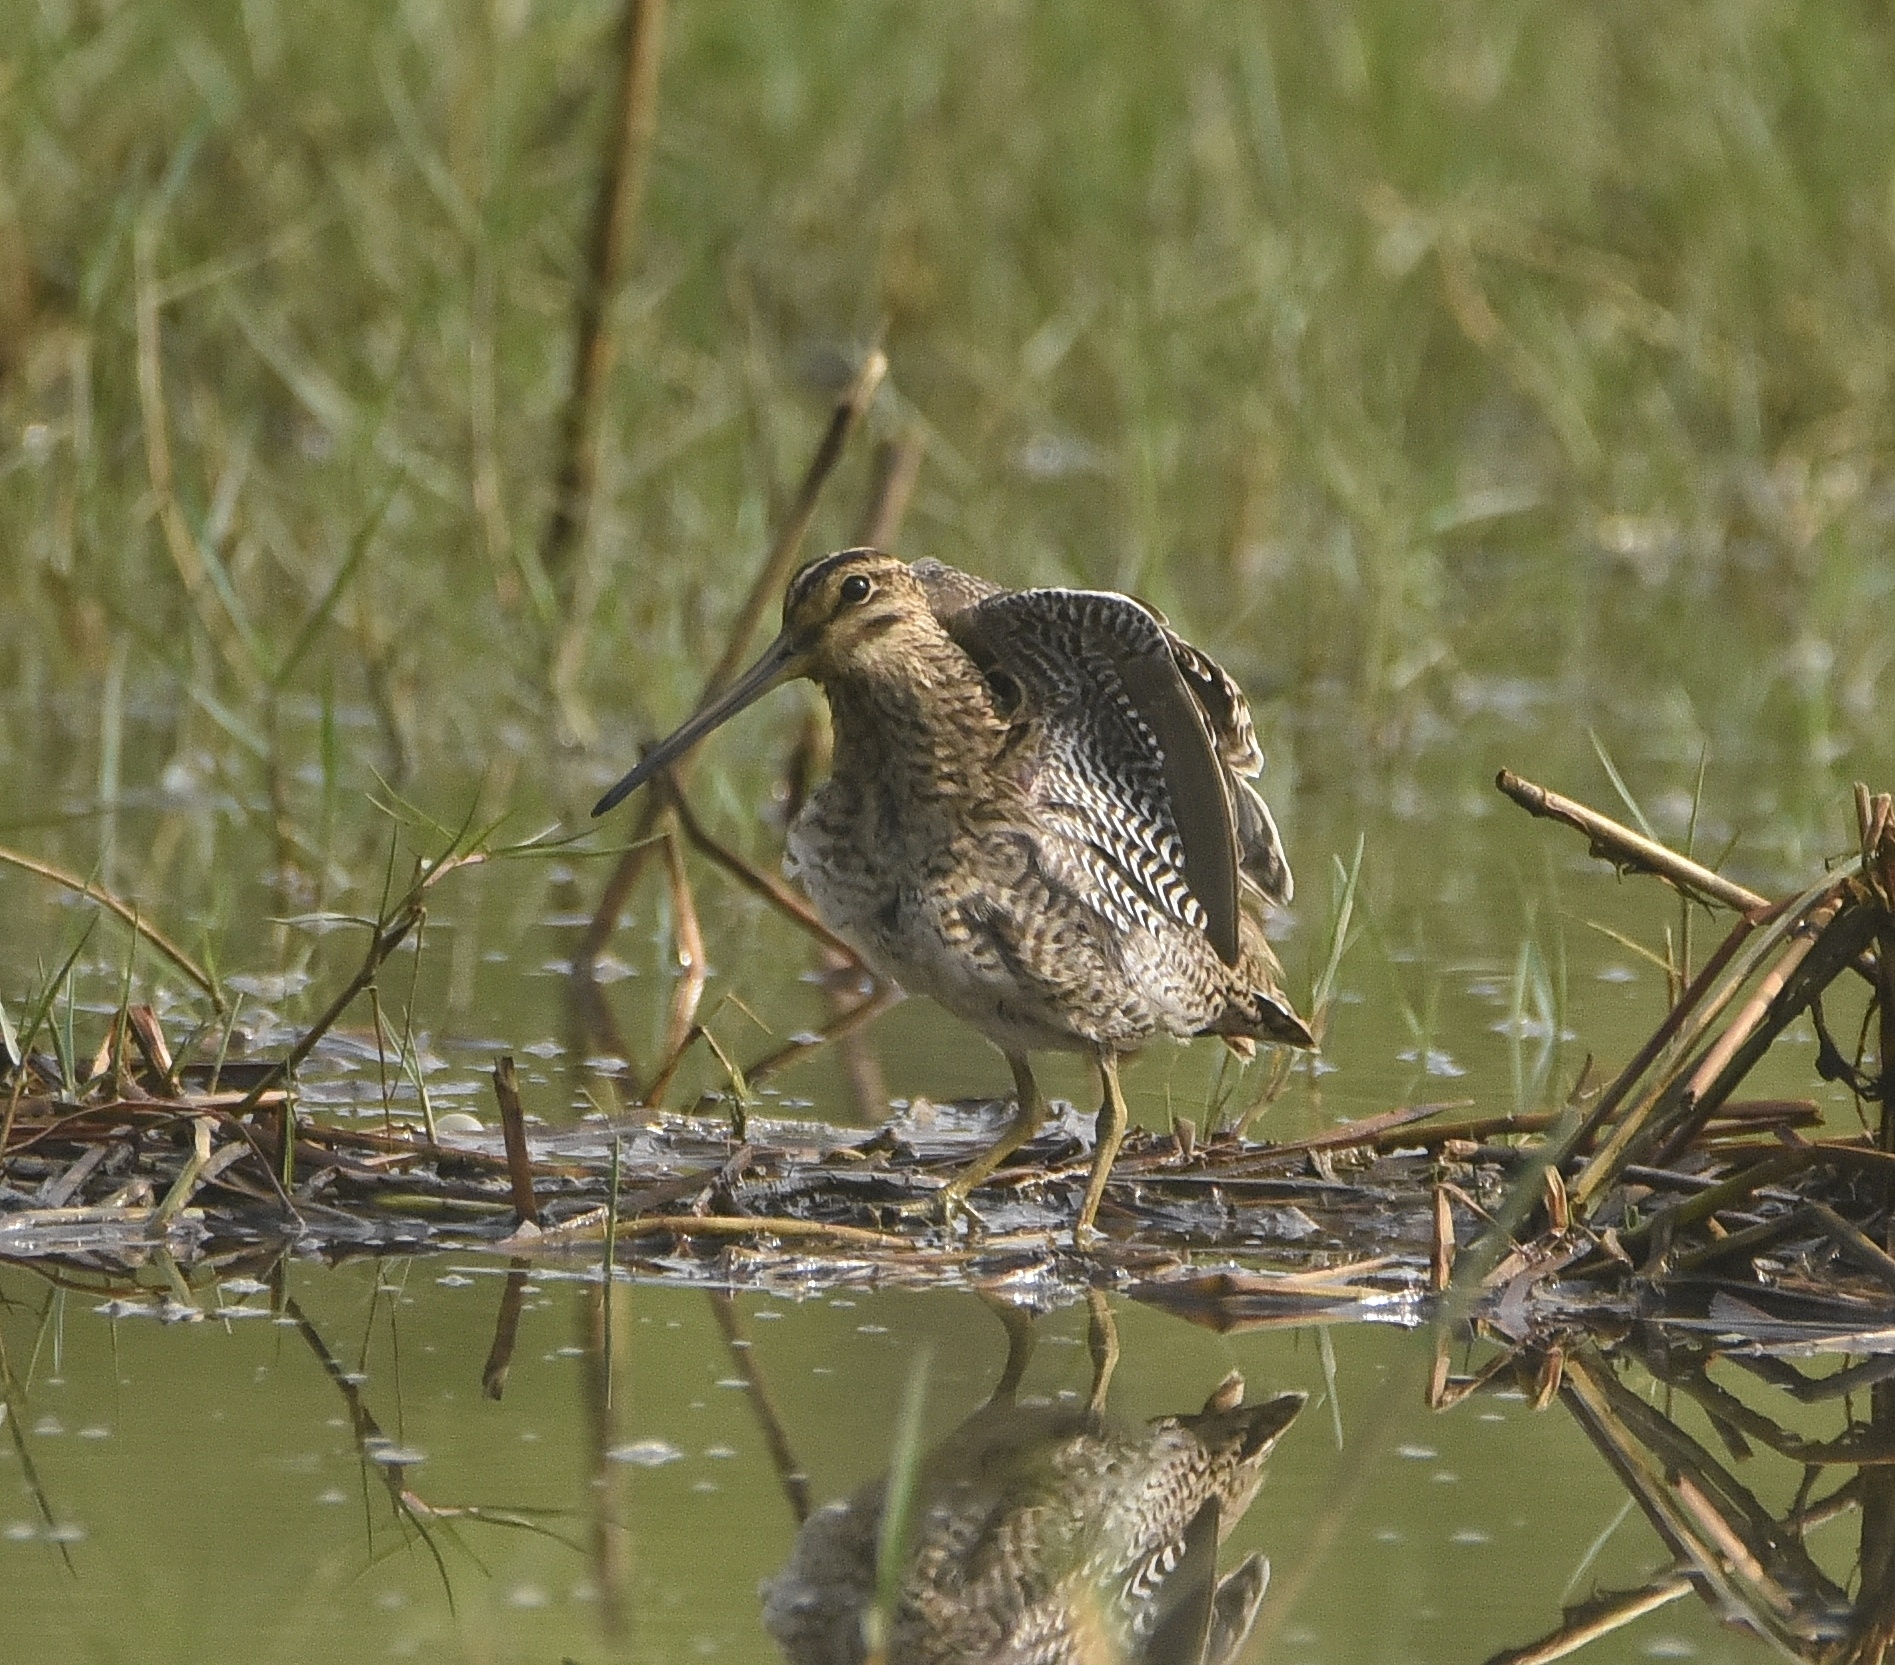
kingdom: Animalia
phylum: Chordata
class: Aves
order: Charadriiformes
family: Scolopacidae
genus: Gallinago
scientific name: Gallinago stenura
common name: Pin-tailed snipe
